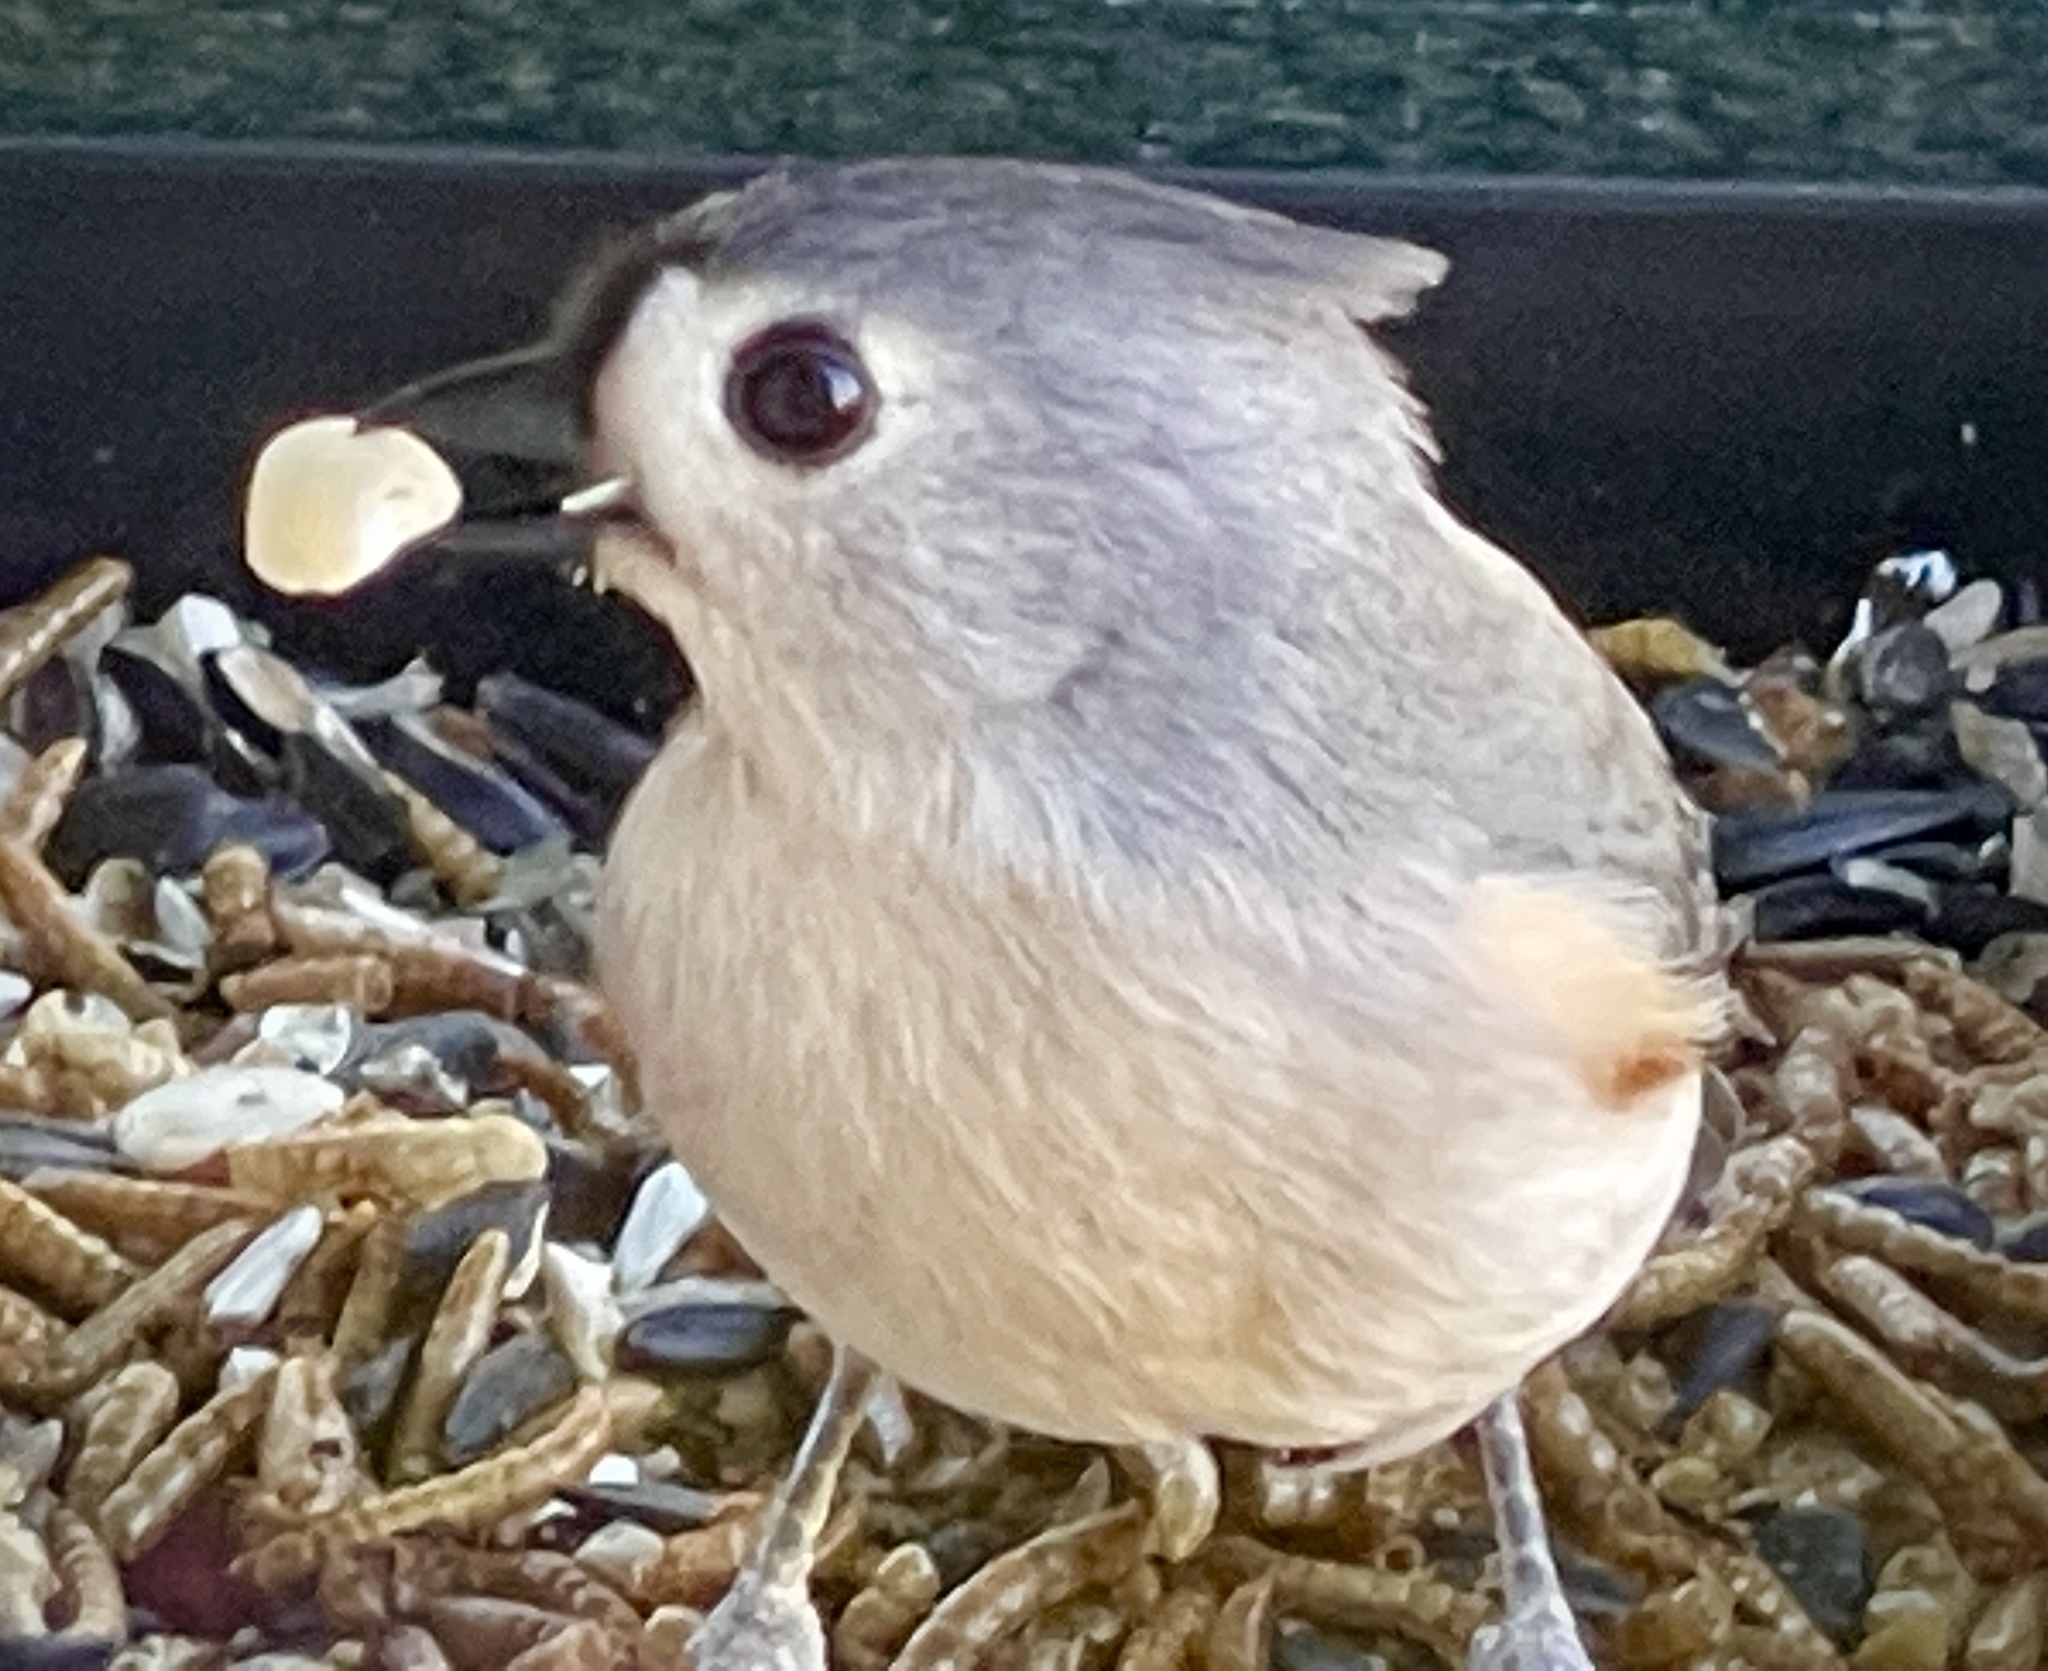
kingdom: Animalia
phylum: Chordata
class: Aves
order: Passeriformes
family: Paridae
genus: Baeolophus
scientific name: Baeolophus bicolor
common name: Tufted titmouse
